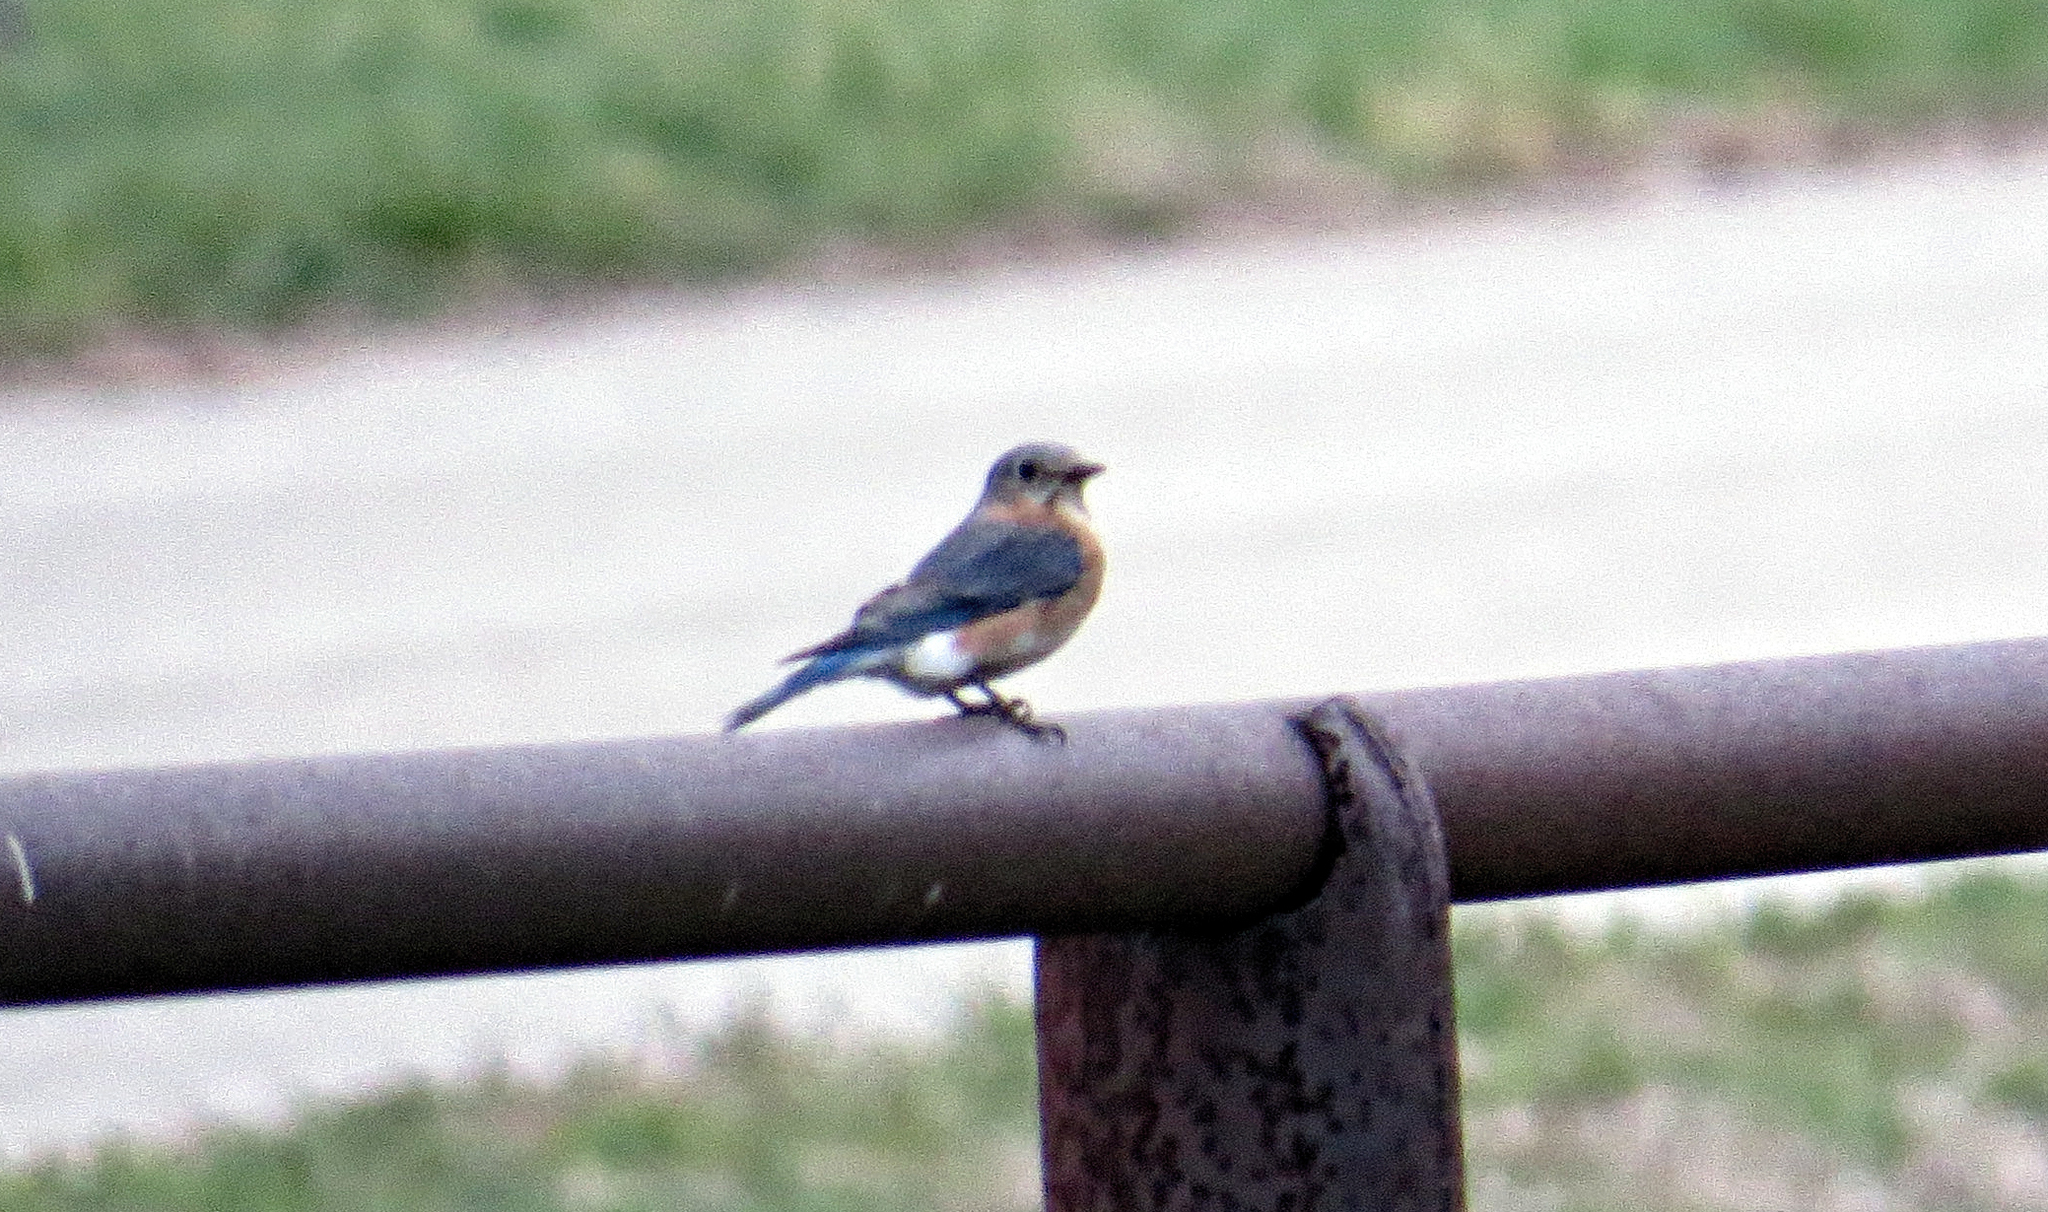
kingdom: Animalia
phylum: Chordata
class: Aves
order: Passeriformes
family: Turdidae
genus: Sialia
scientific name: Sialia sialis
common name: Eastern bluebird
